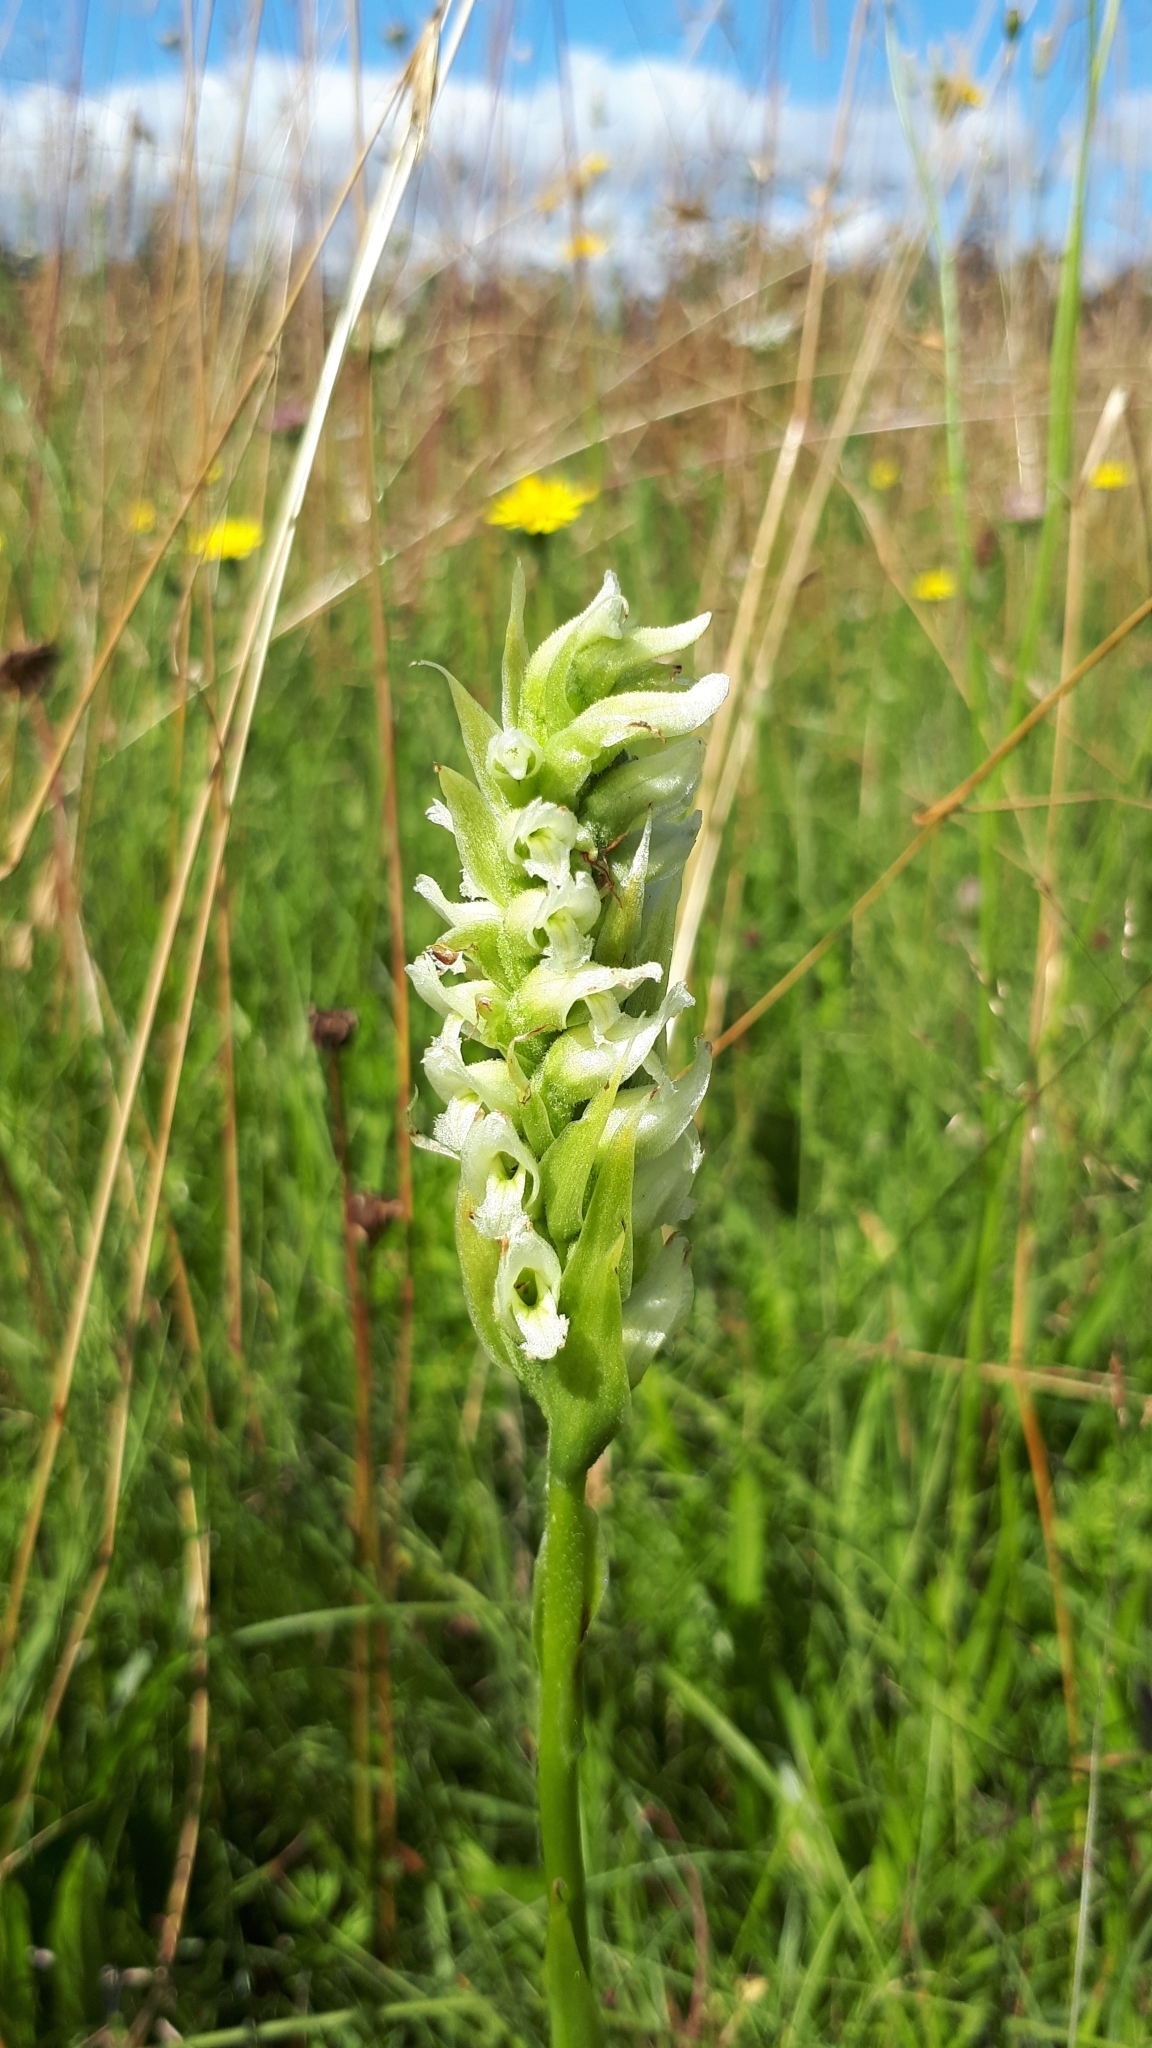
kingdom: Plantae
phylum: Tracheophyta
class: Liliopsida
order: Asparagales
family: Orchidaceae
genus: Spiranthes
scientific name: Spiranthes romanzoffiana
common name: Irish lady's-tresses
